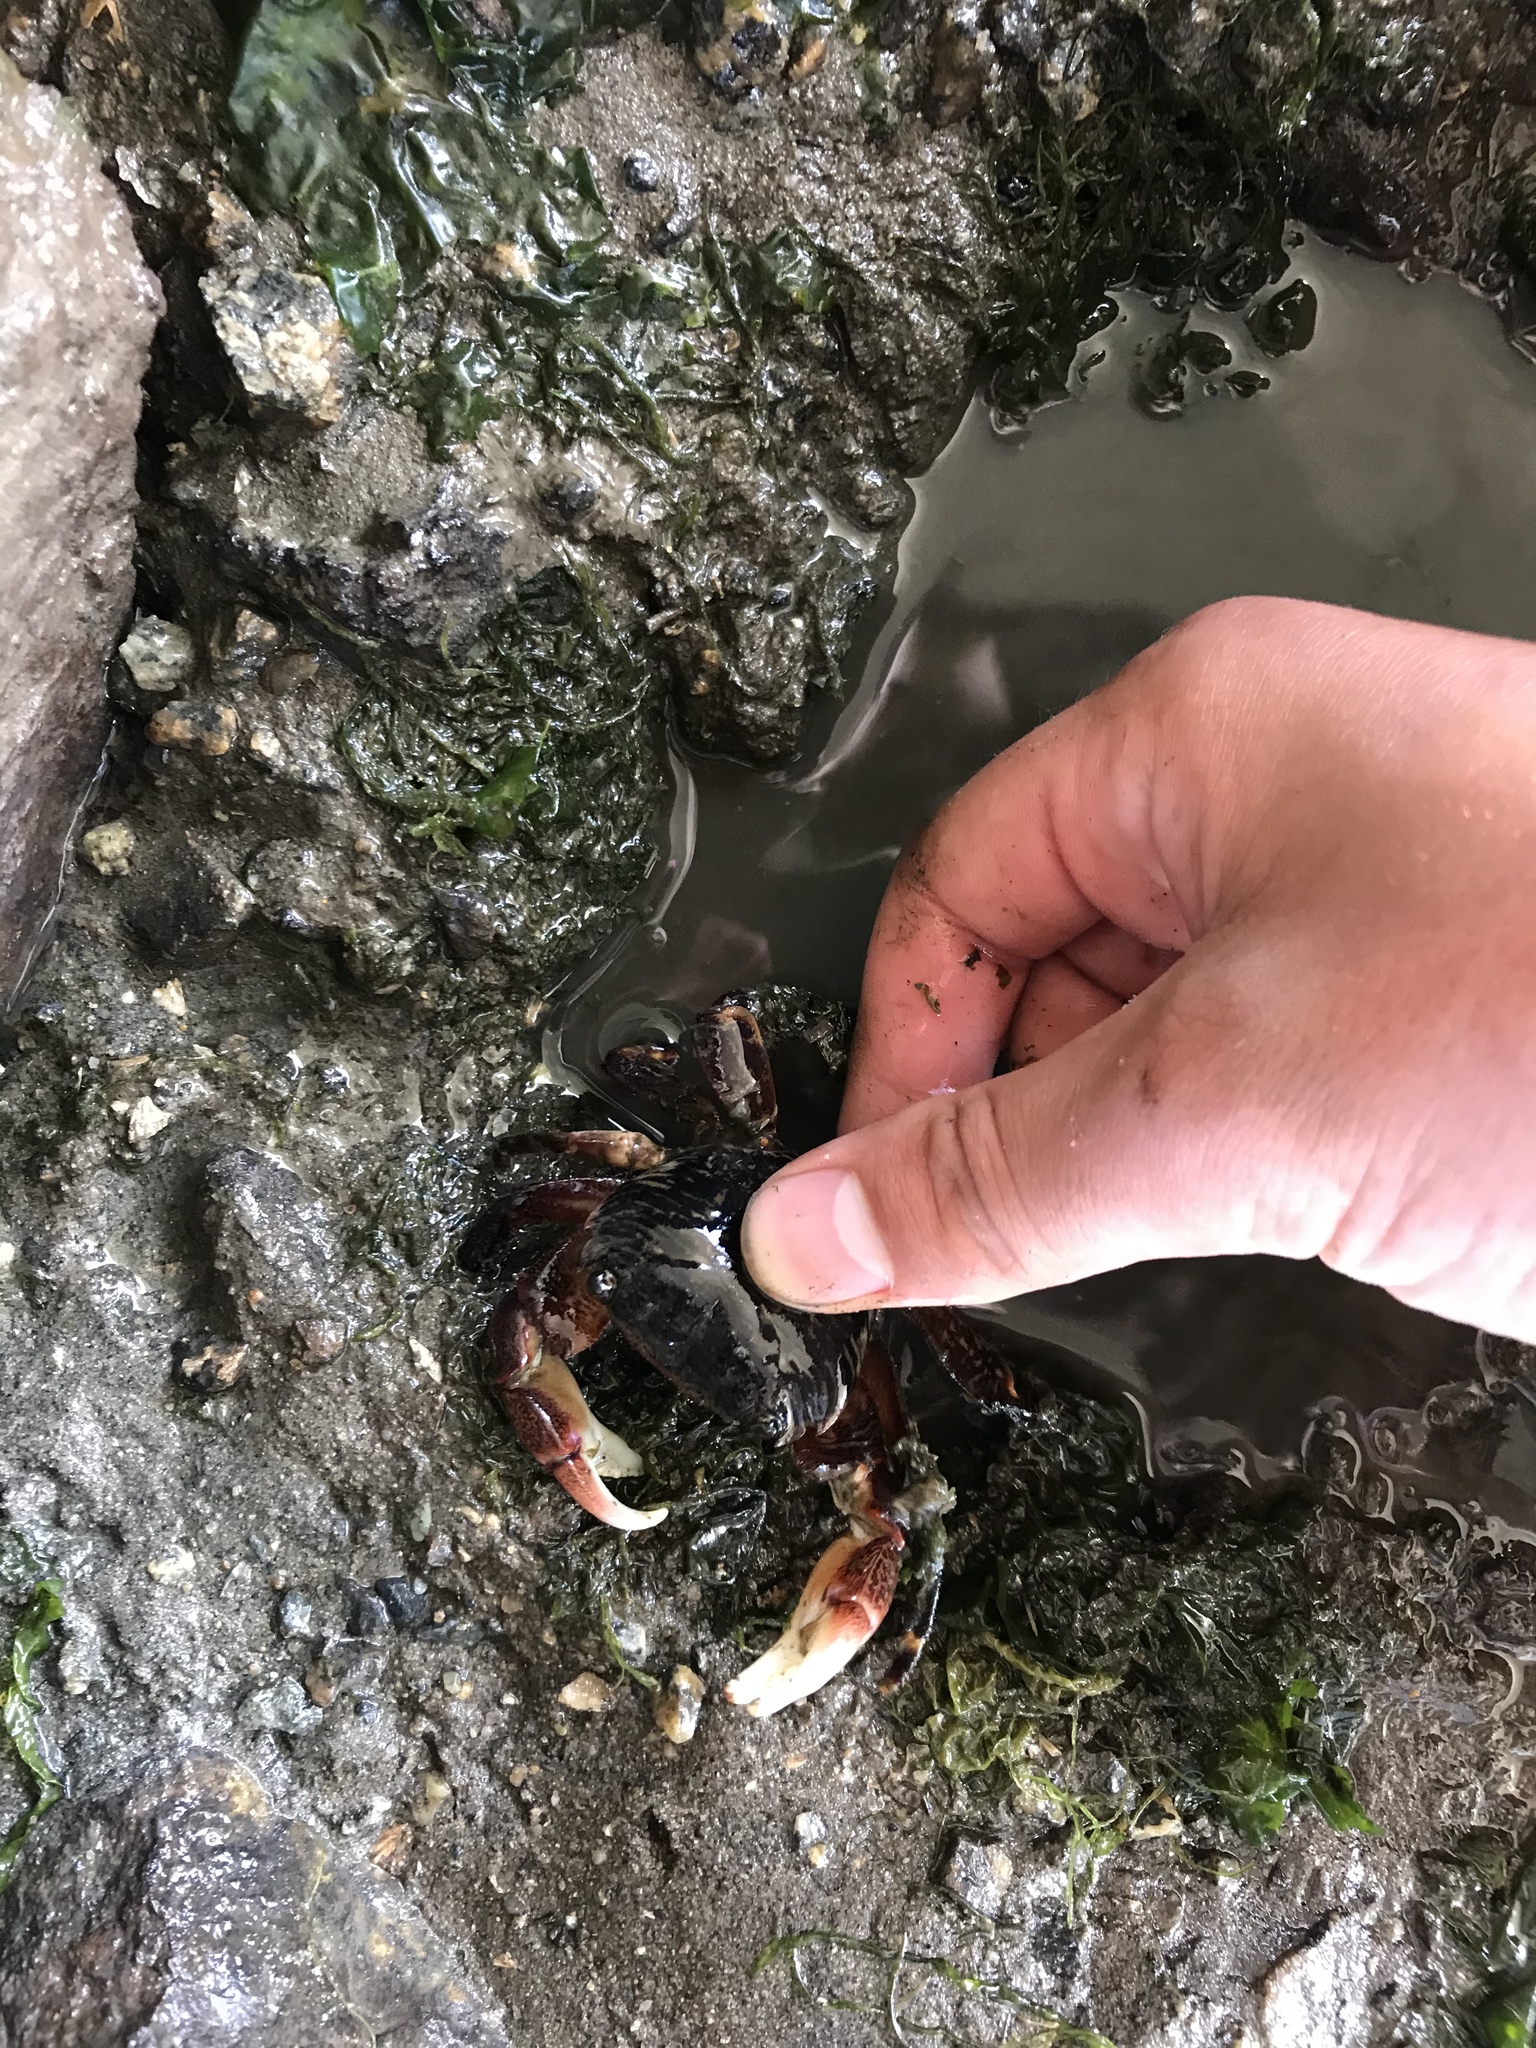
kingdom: Animalia
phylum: Arthropoda
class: Malacostraca
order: Decapoda
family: Grapsidae
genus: Pachygrapsus
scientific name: Pachygrapsus crassipes
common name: Striped shore crab
